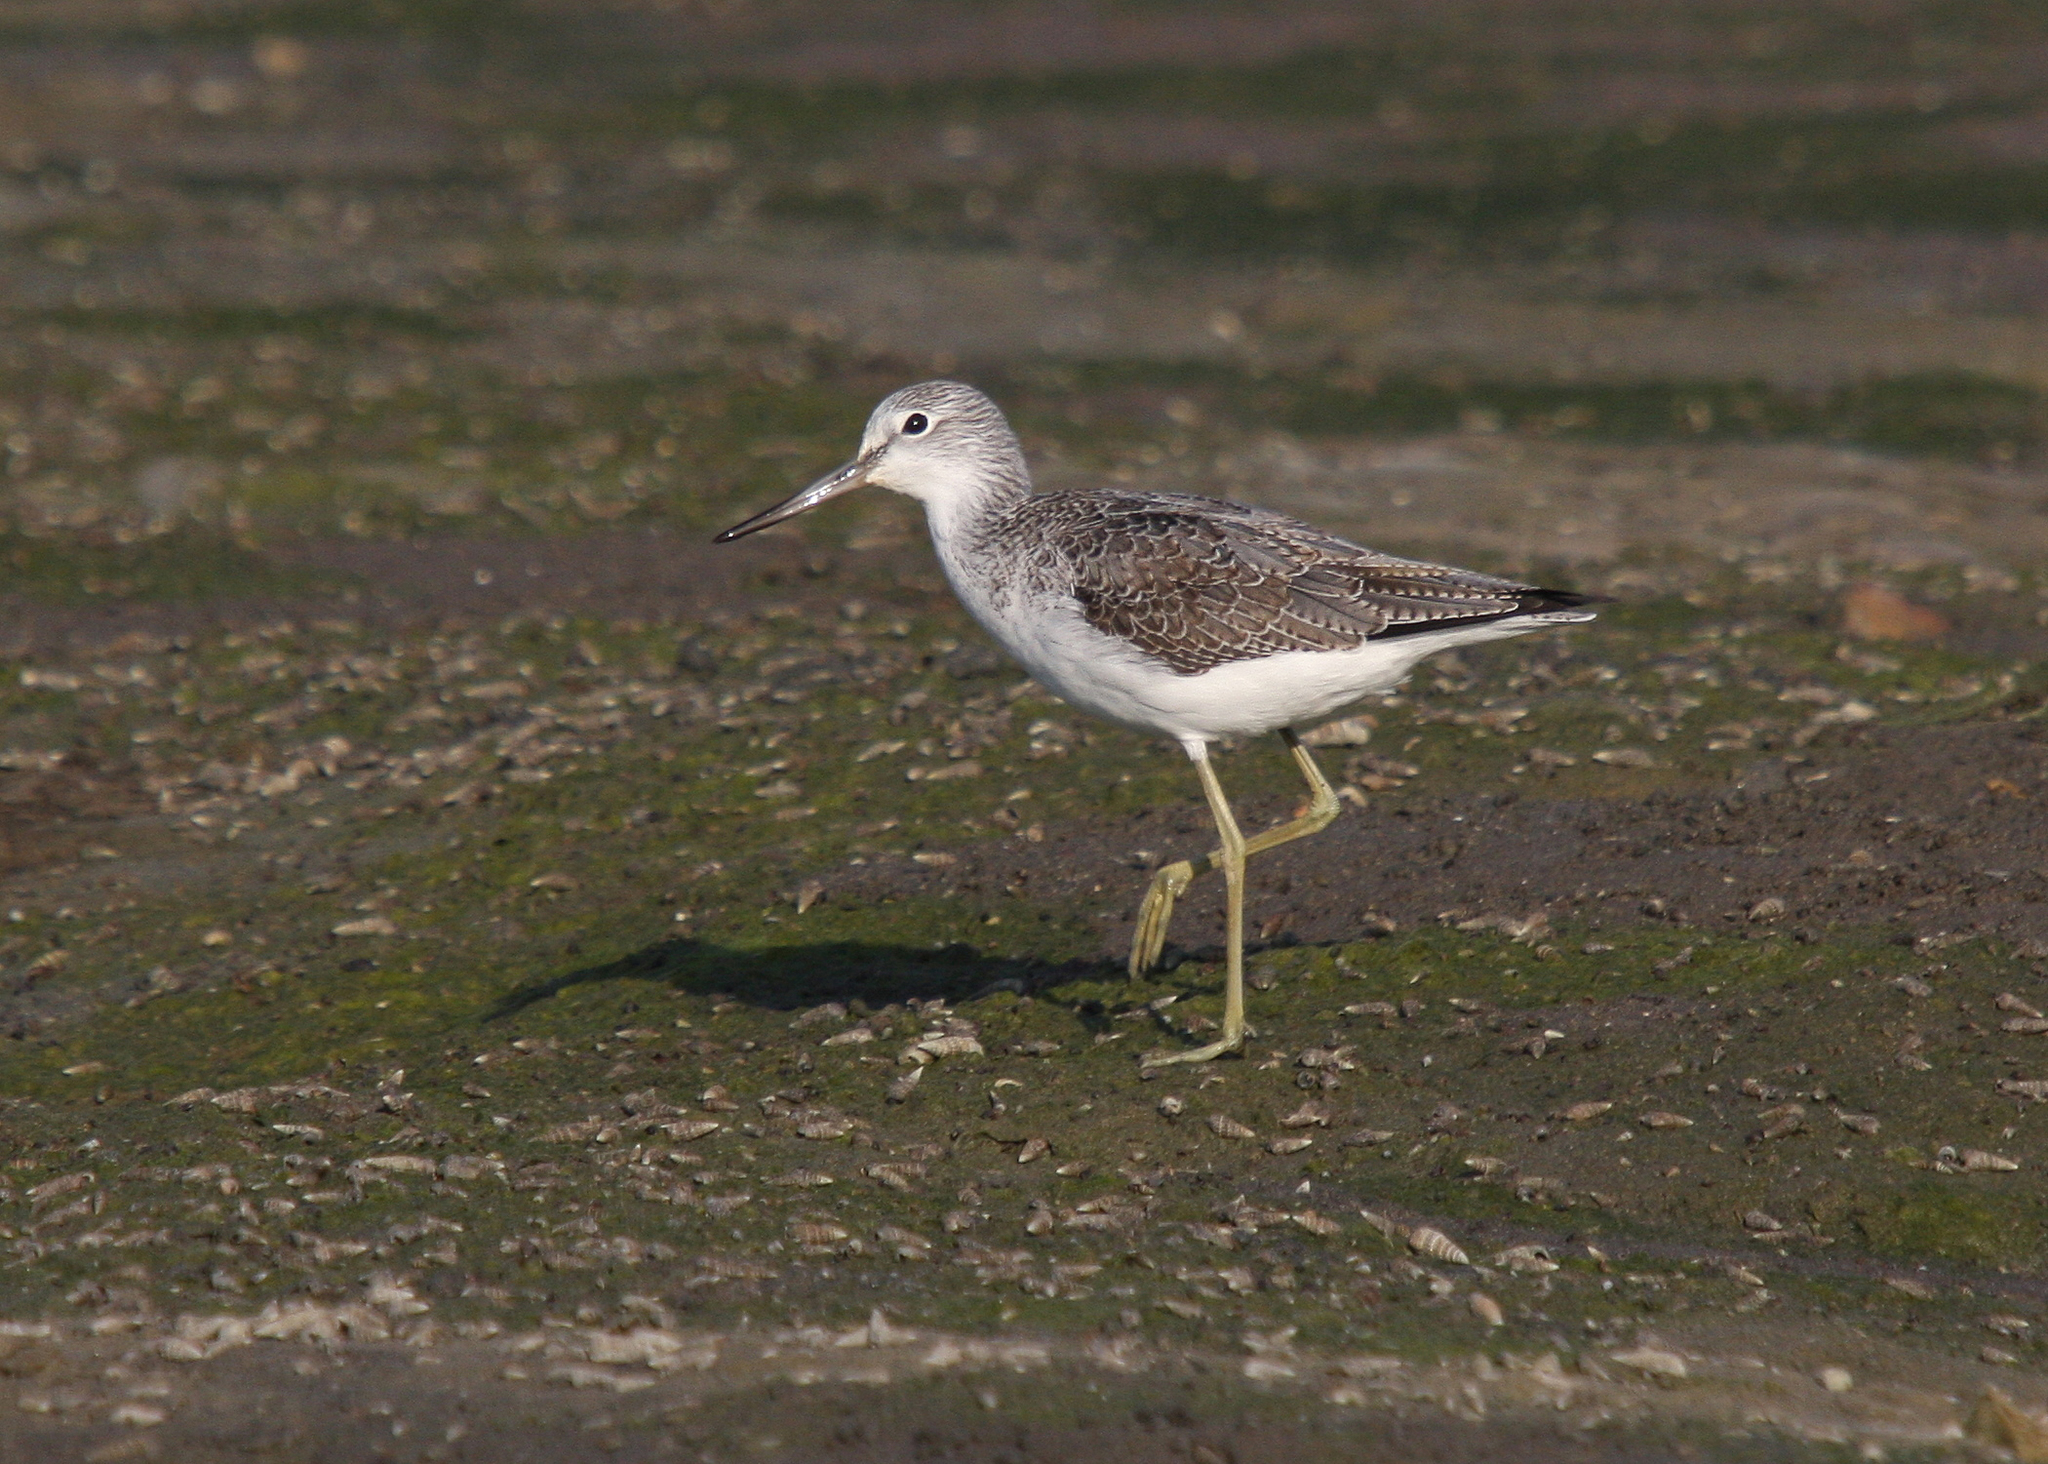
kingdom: Animalia
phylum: Chordata
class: Aves
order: Charadriiformes
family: Scolopacidae
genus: Tringa
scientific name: Tringa nebularia
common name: Common greenshank
